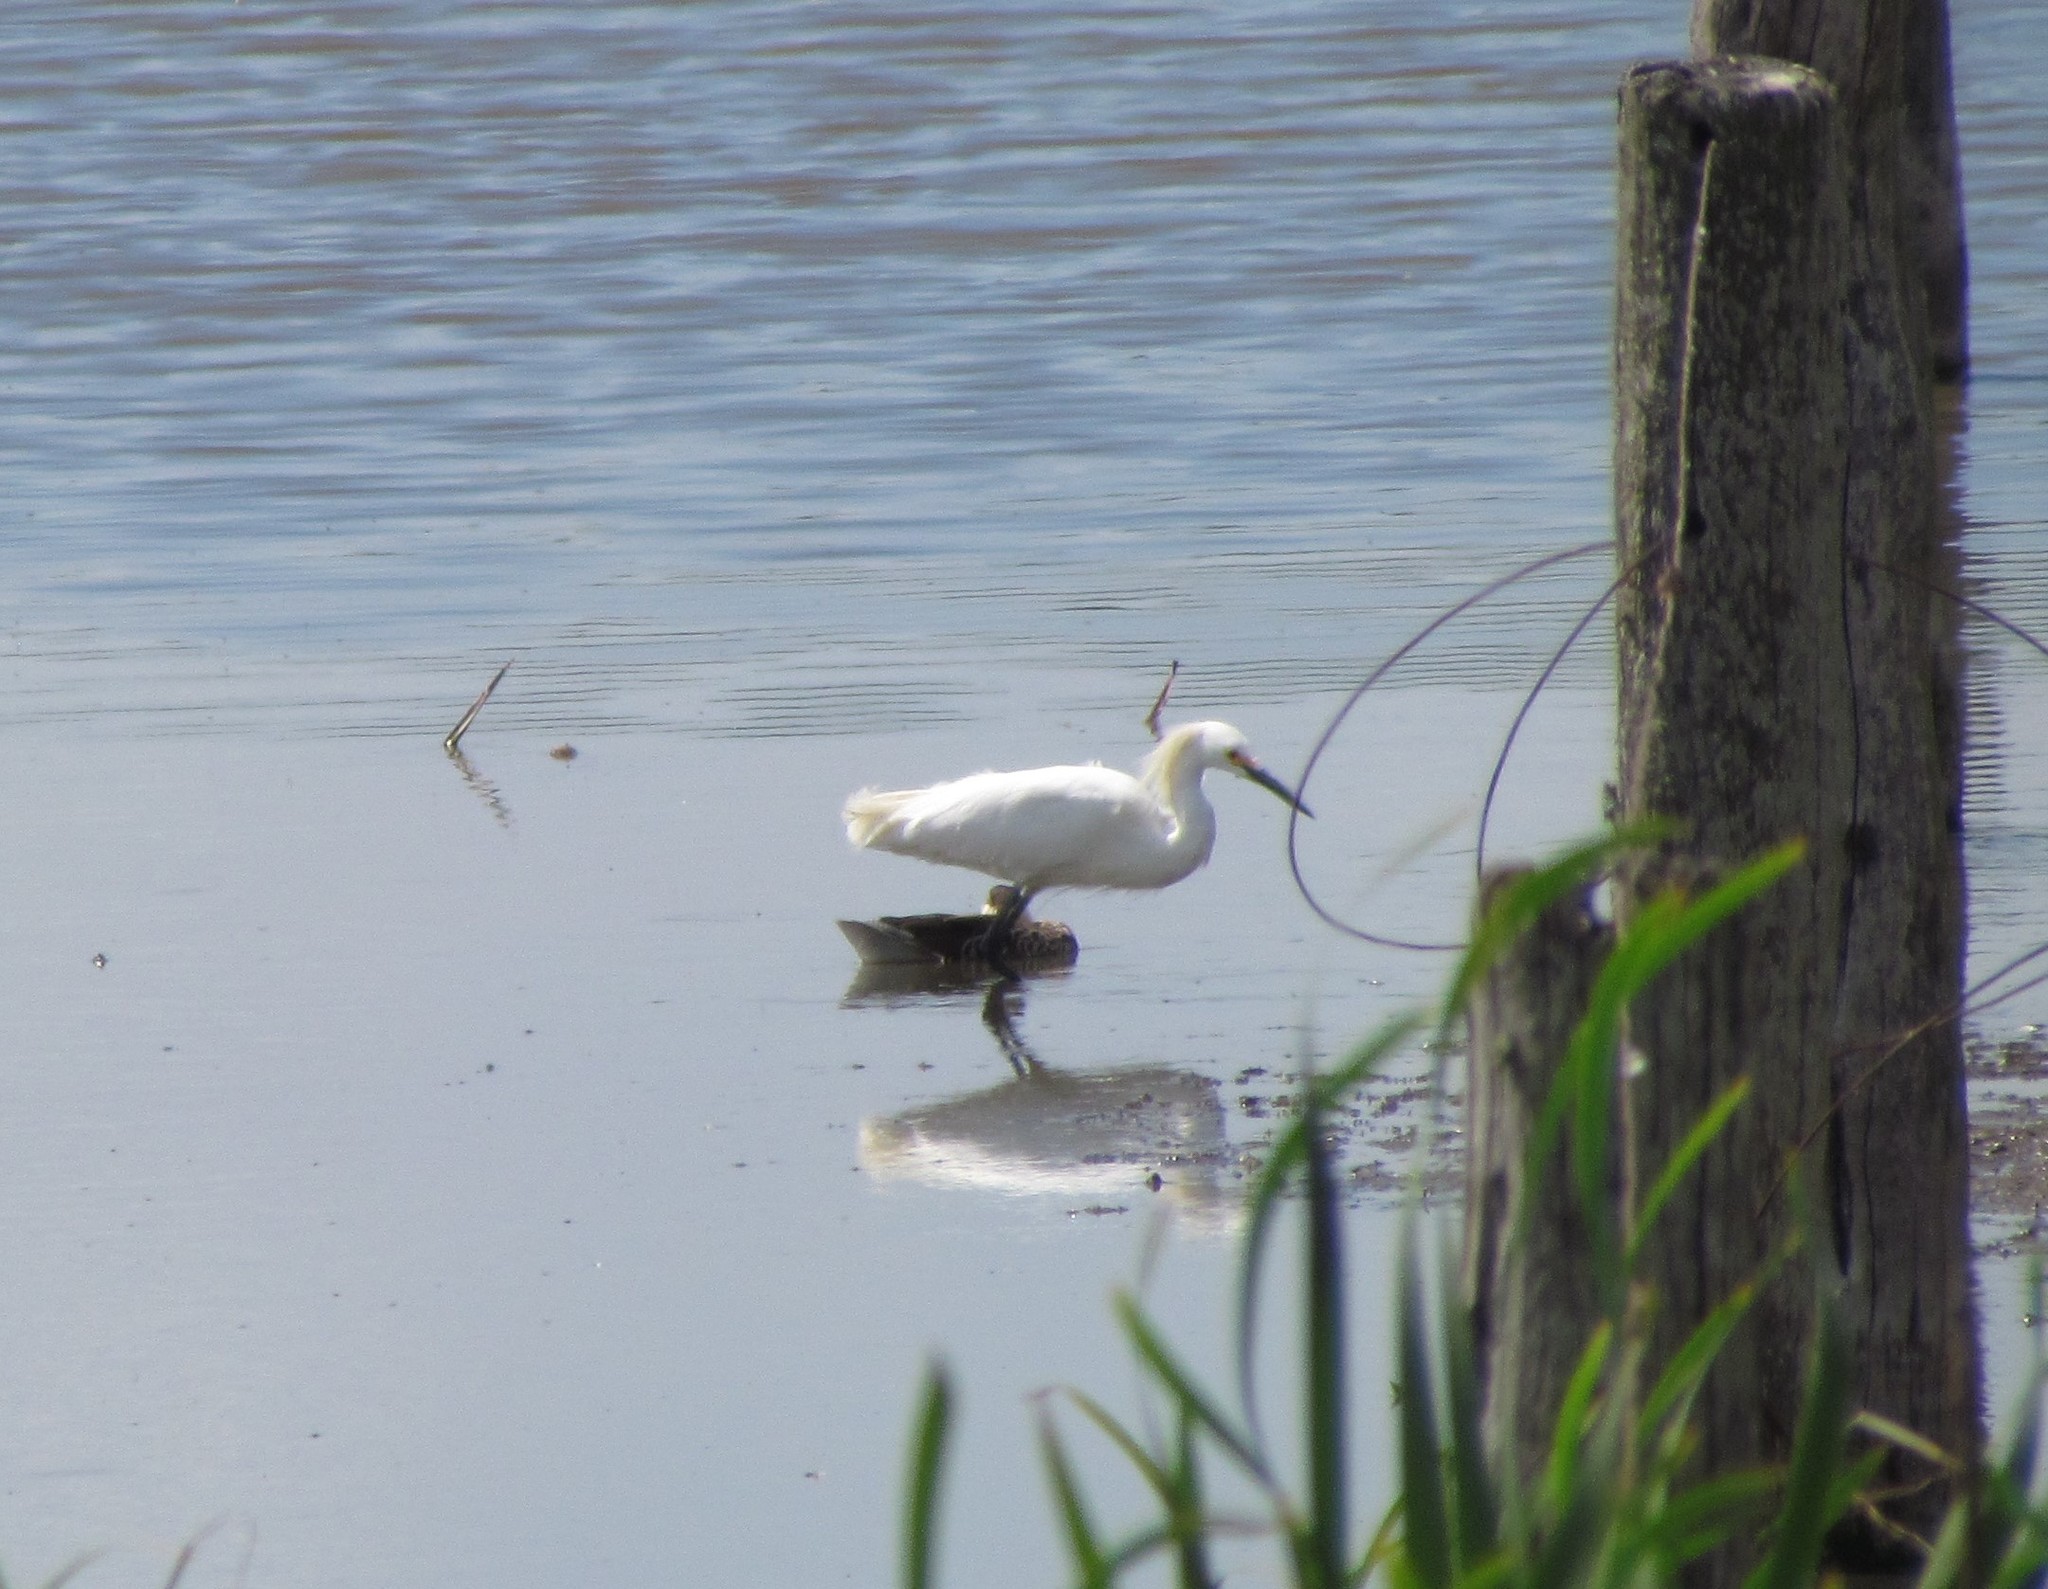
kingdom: Animalia
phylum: Chordata
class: Aves
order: Pelecaniformes
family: Ardeidae
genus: Egretta
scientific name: Egretta thula
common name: Snowy egret
